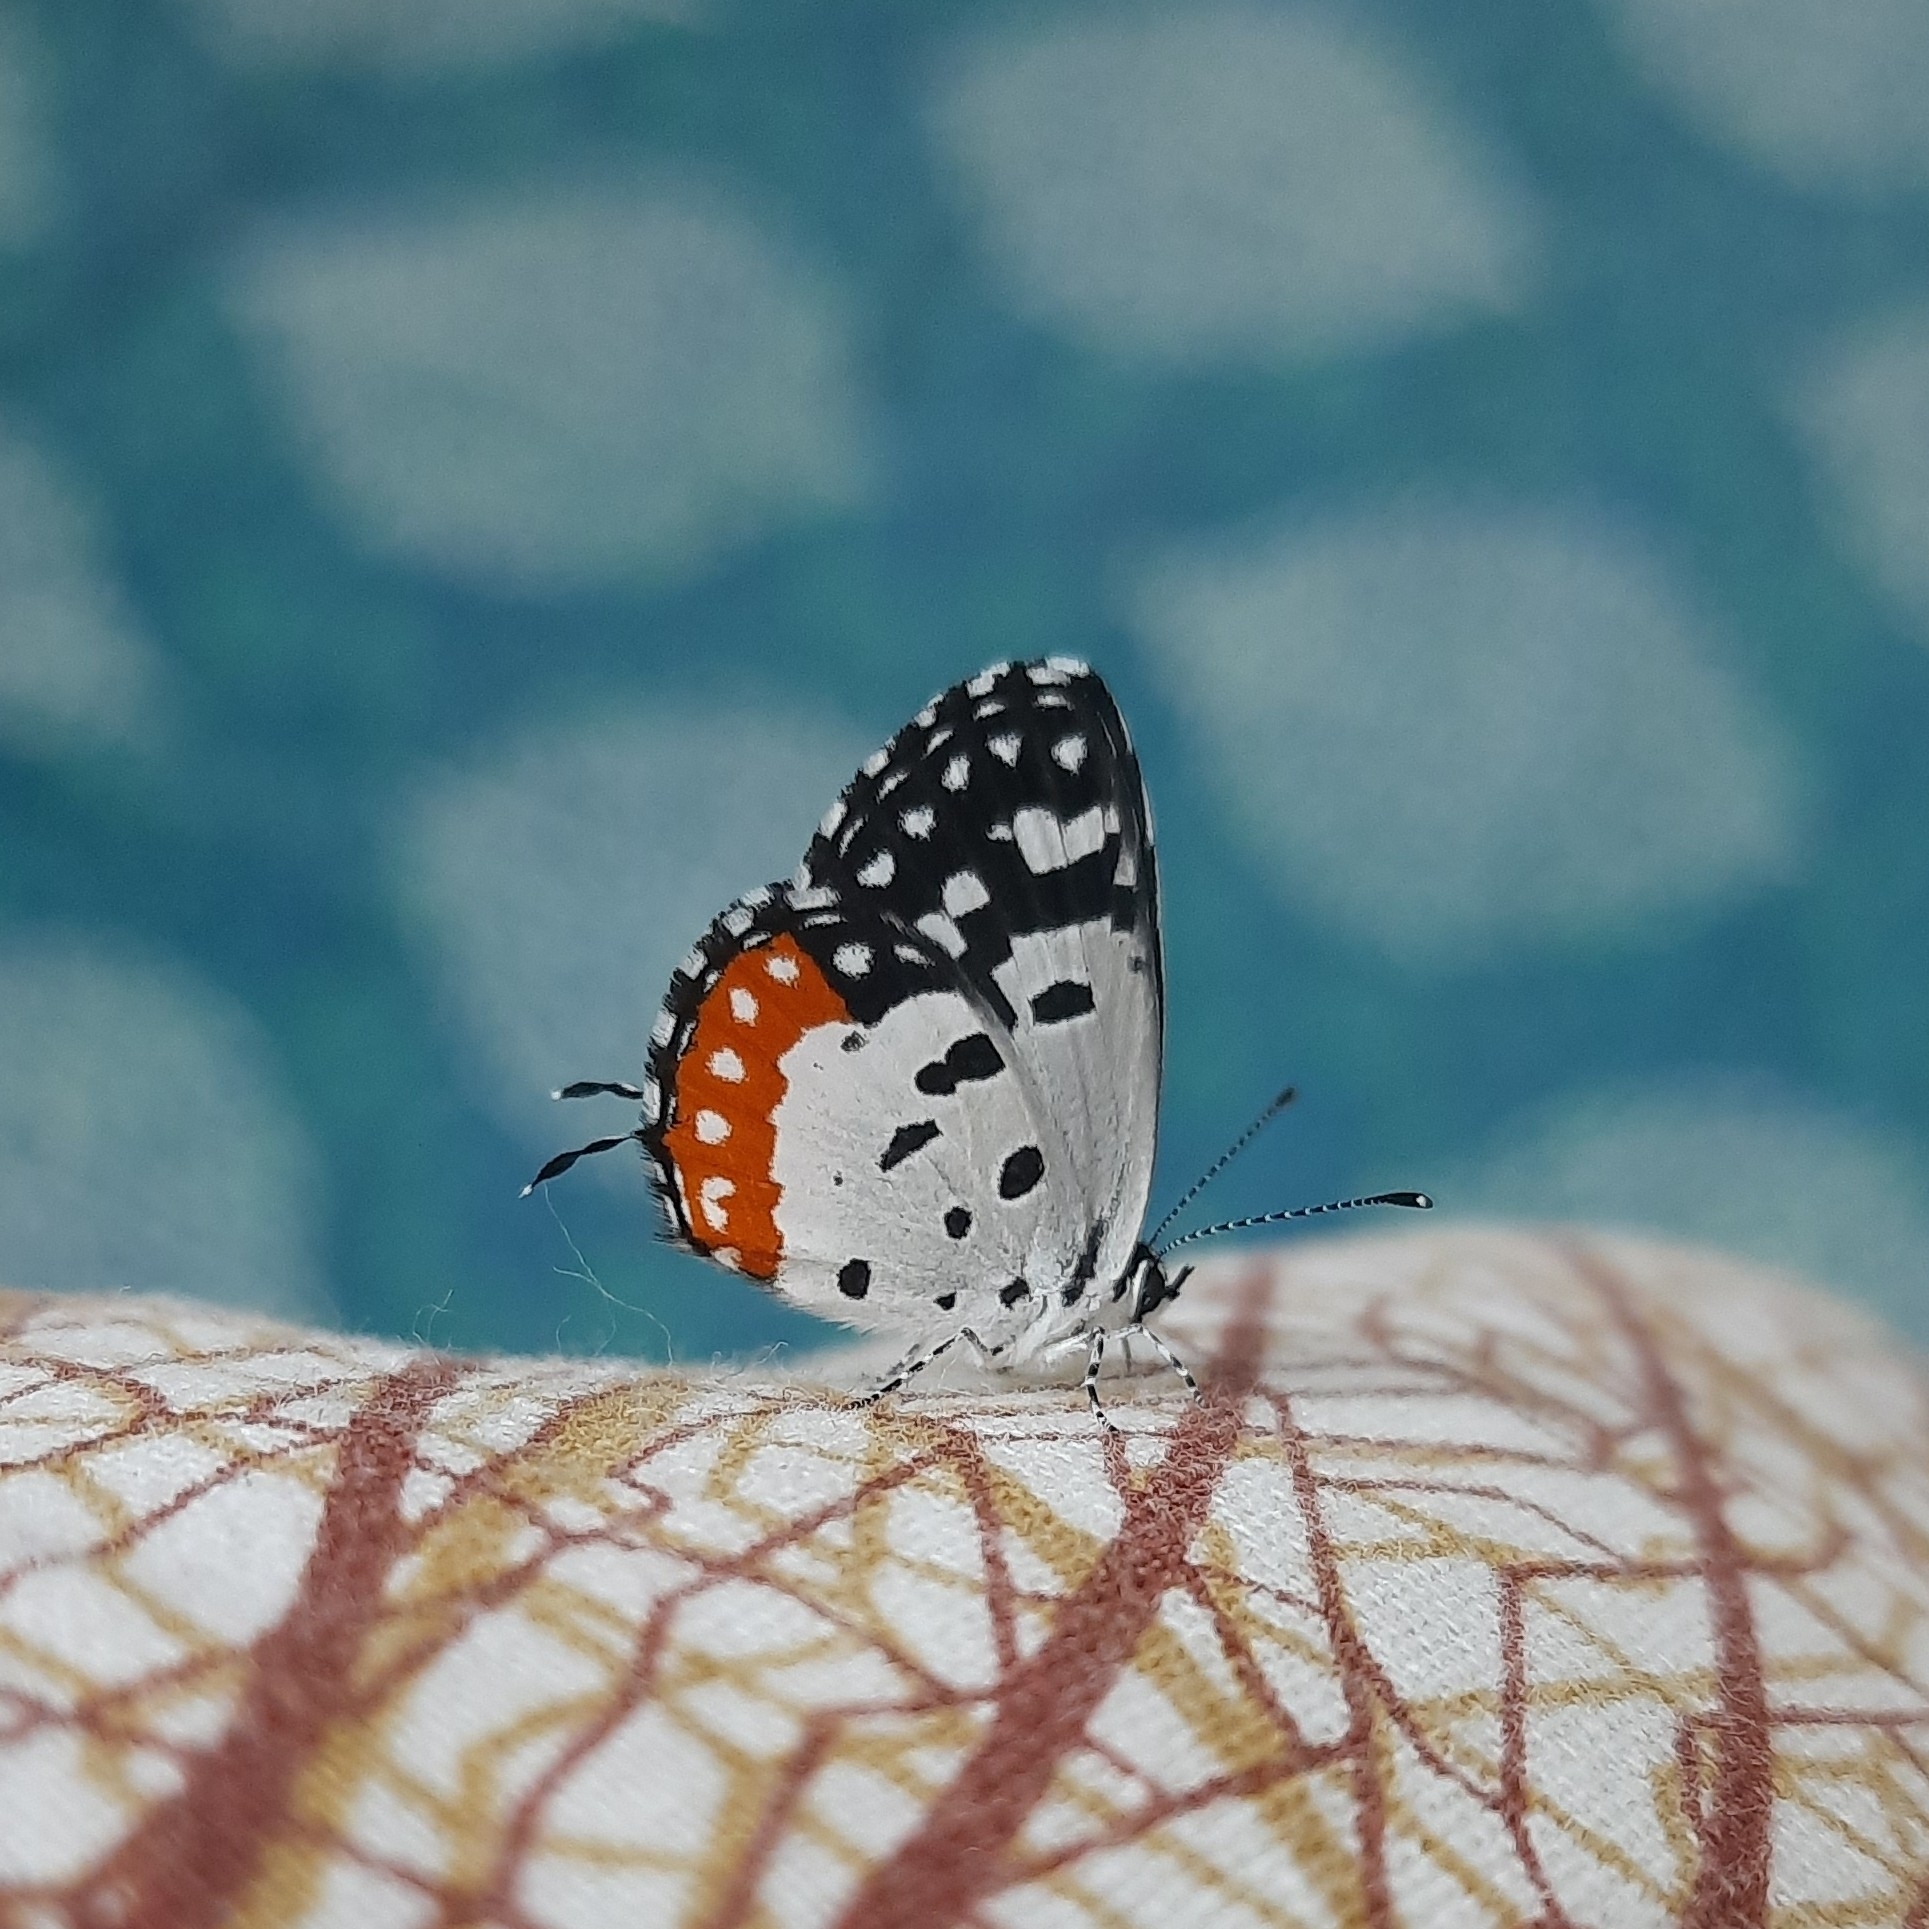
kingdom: Animalia
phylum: Arthropoda
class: Insecta
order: Lepidoptera
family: Lycaenidae
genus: Talicada
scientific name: Talicada nyseus
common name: Red pierrot
